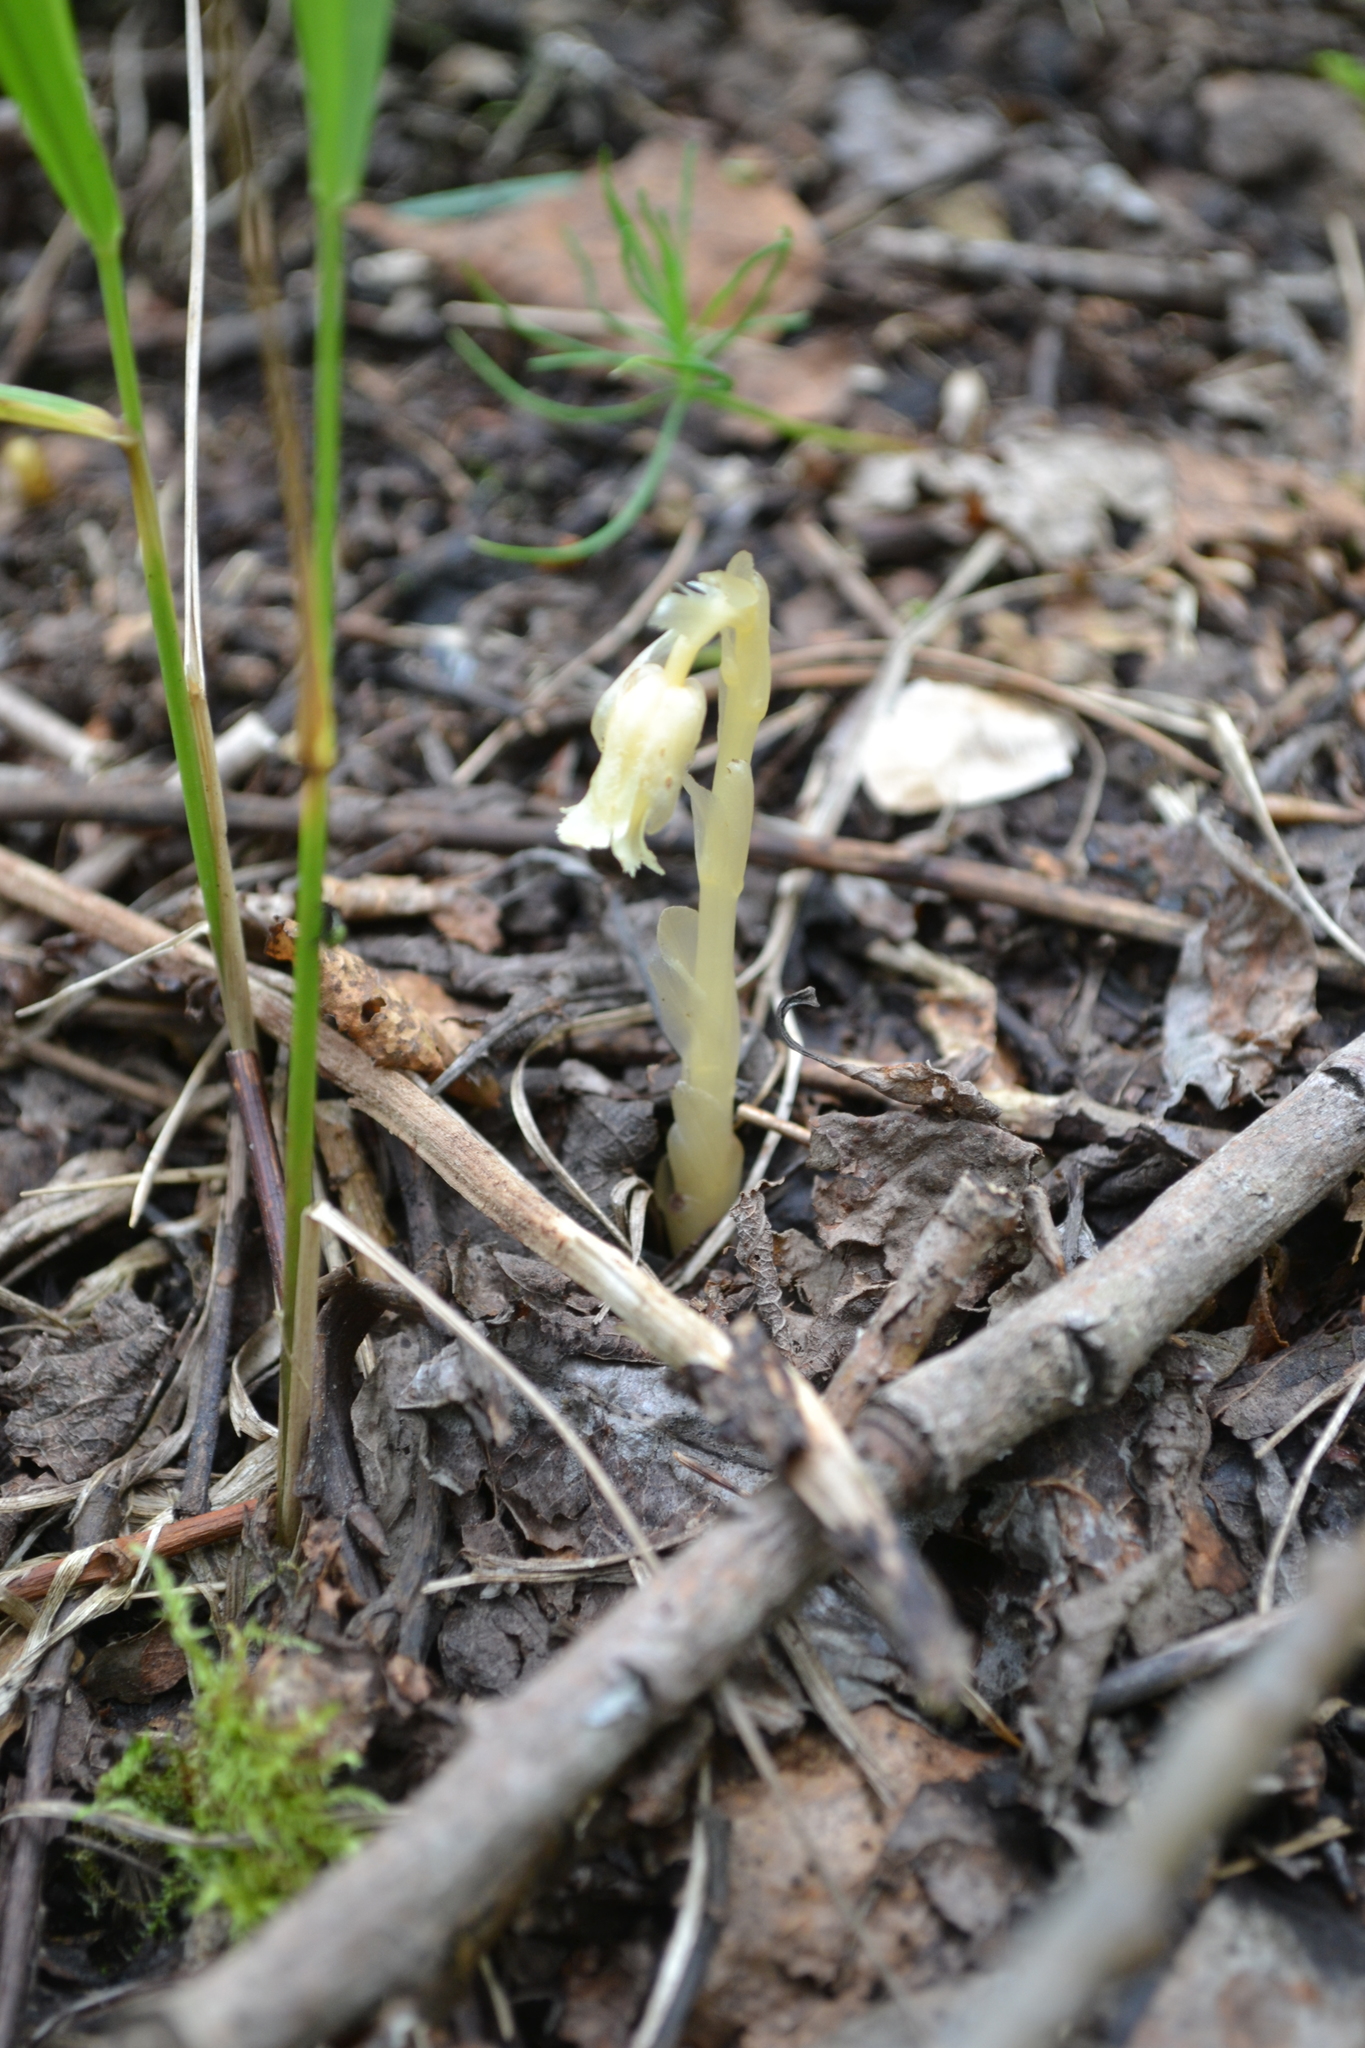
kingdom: Plantae
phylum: Tracheophyta
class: Magnoliopsida
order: Ericales
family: Ericaceae
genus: Hypopitys
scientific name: Hypopitys monotropa
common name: Yellow bird's-nest
